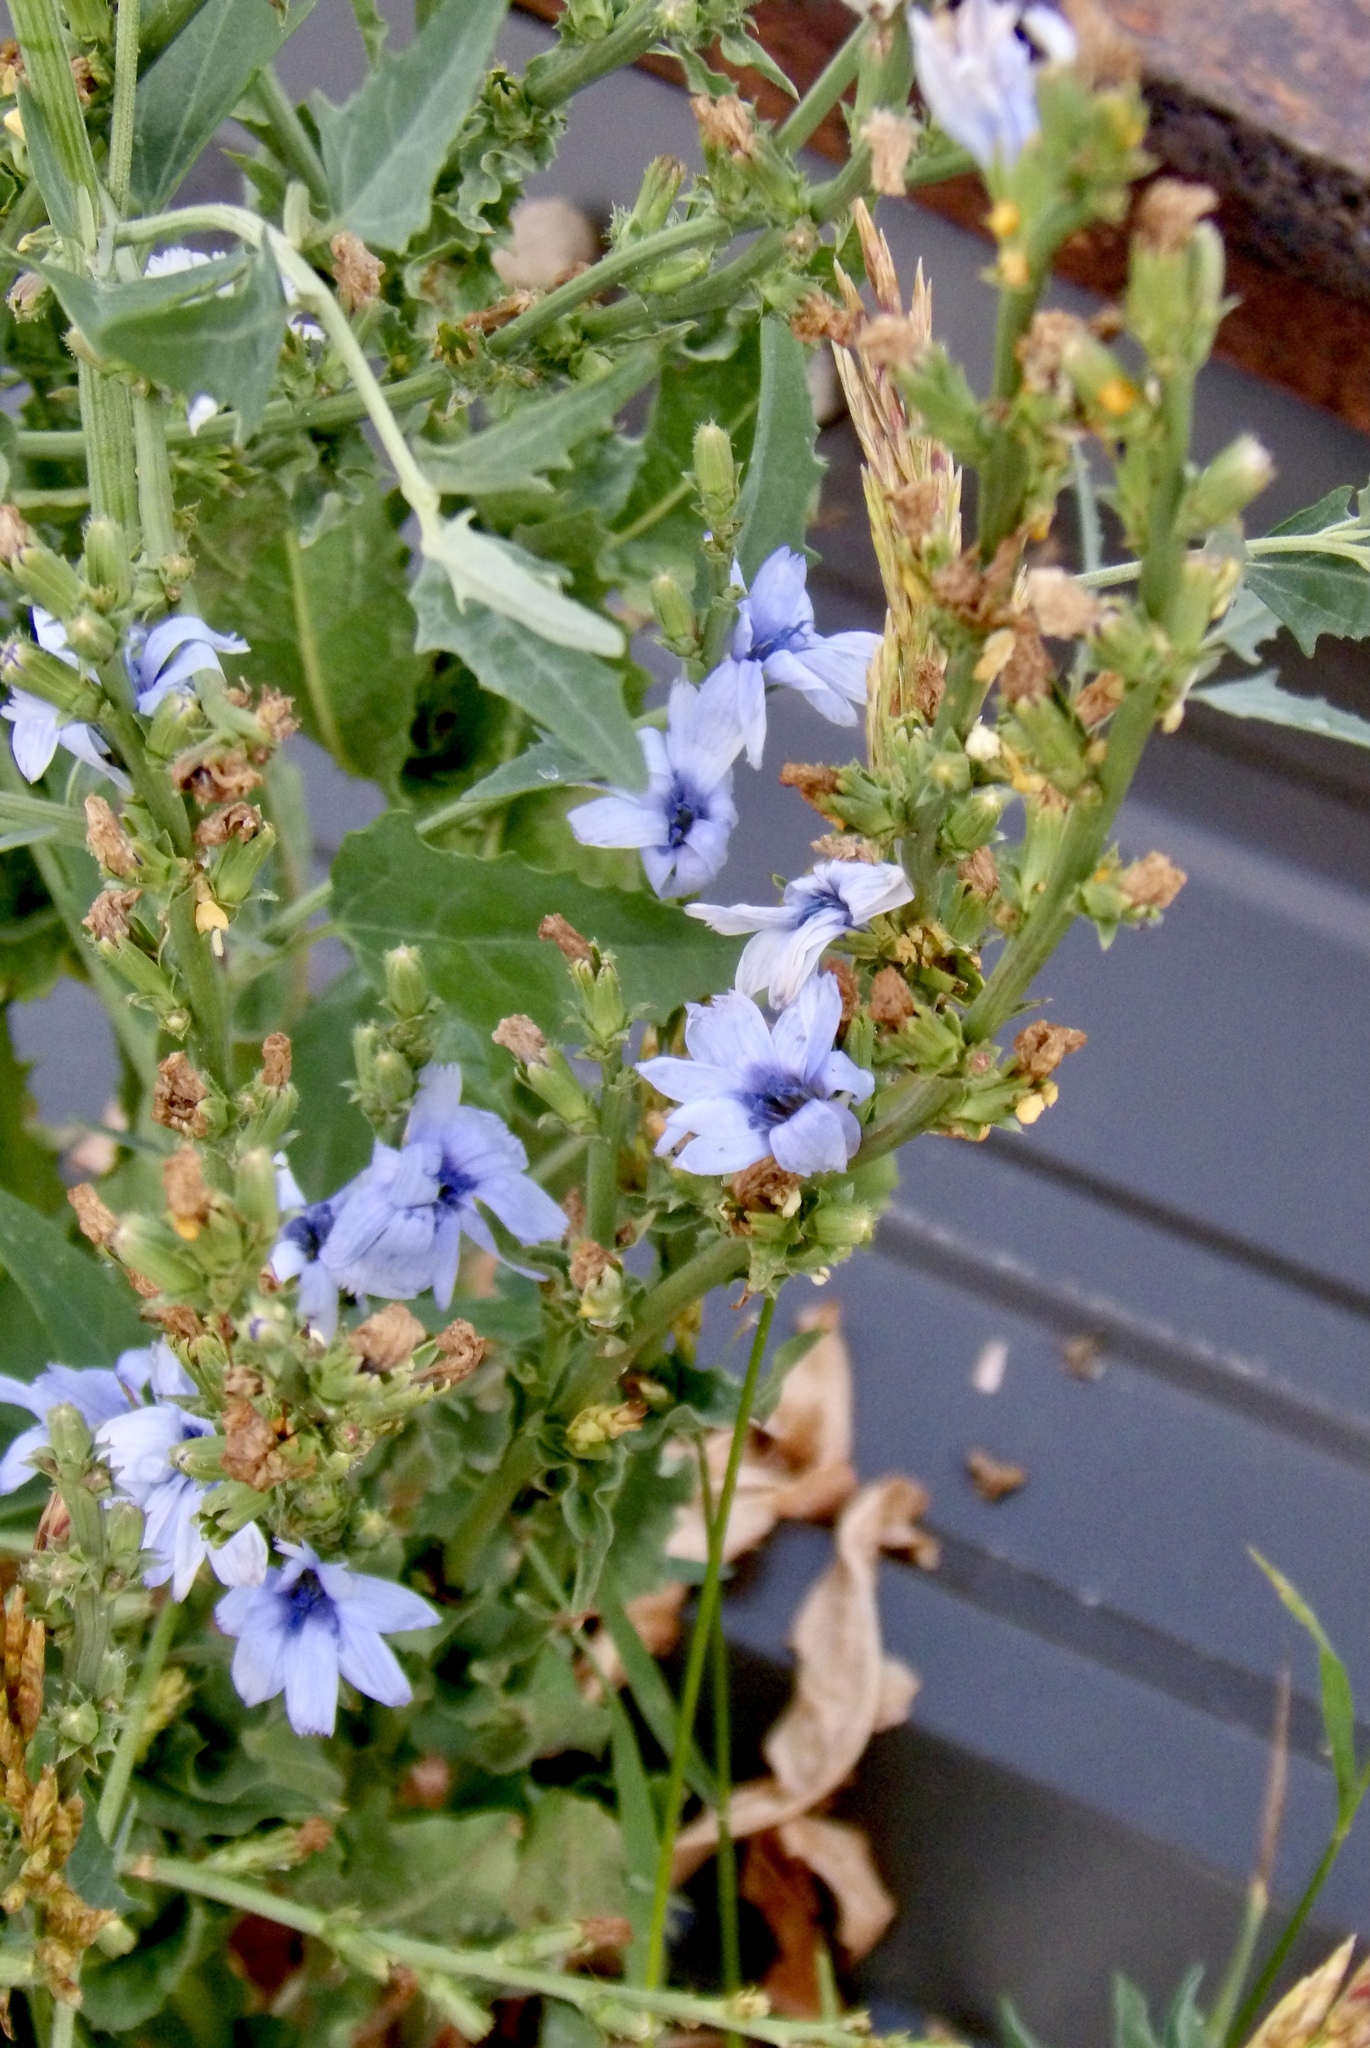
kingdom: Plantae
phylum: Tracheophyta
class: Magnoliopsida
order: Asterales
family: Asteraceae
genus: Cichorium
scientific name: Cichorium intybus
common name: Chicory
